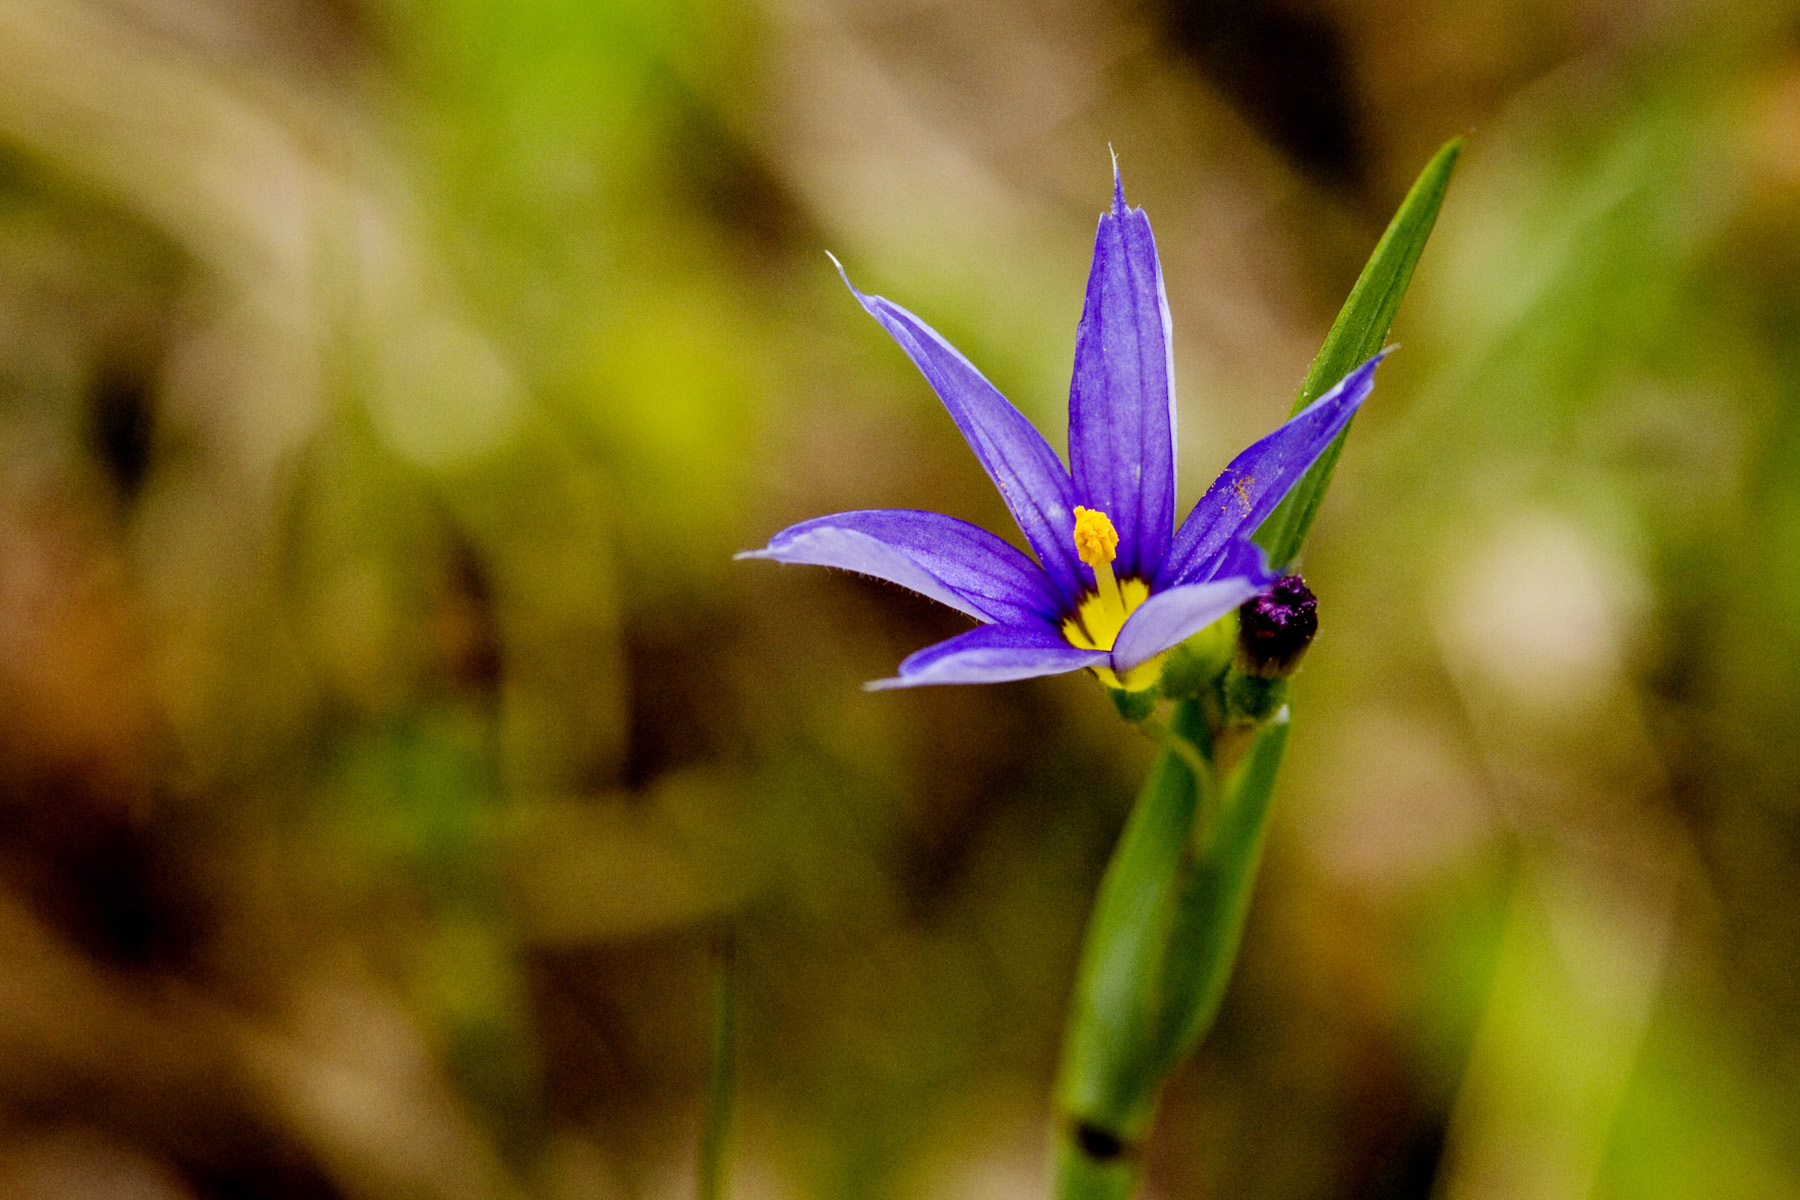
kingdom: Plantae
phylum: Tracheophyta
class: Liliopsida
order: Asparagales
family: Iridaceae
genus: Sisyrinchium
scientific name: Sisyrinchium montanum
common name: American blue-eyed-grass
